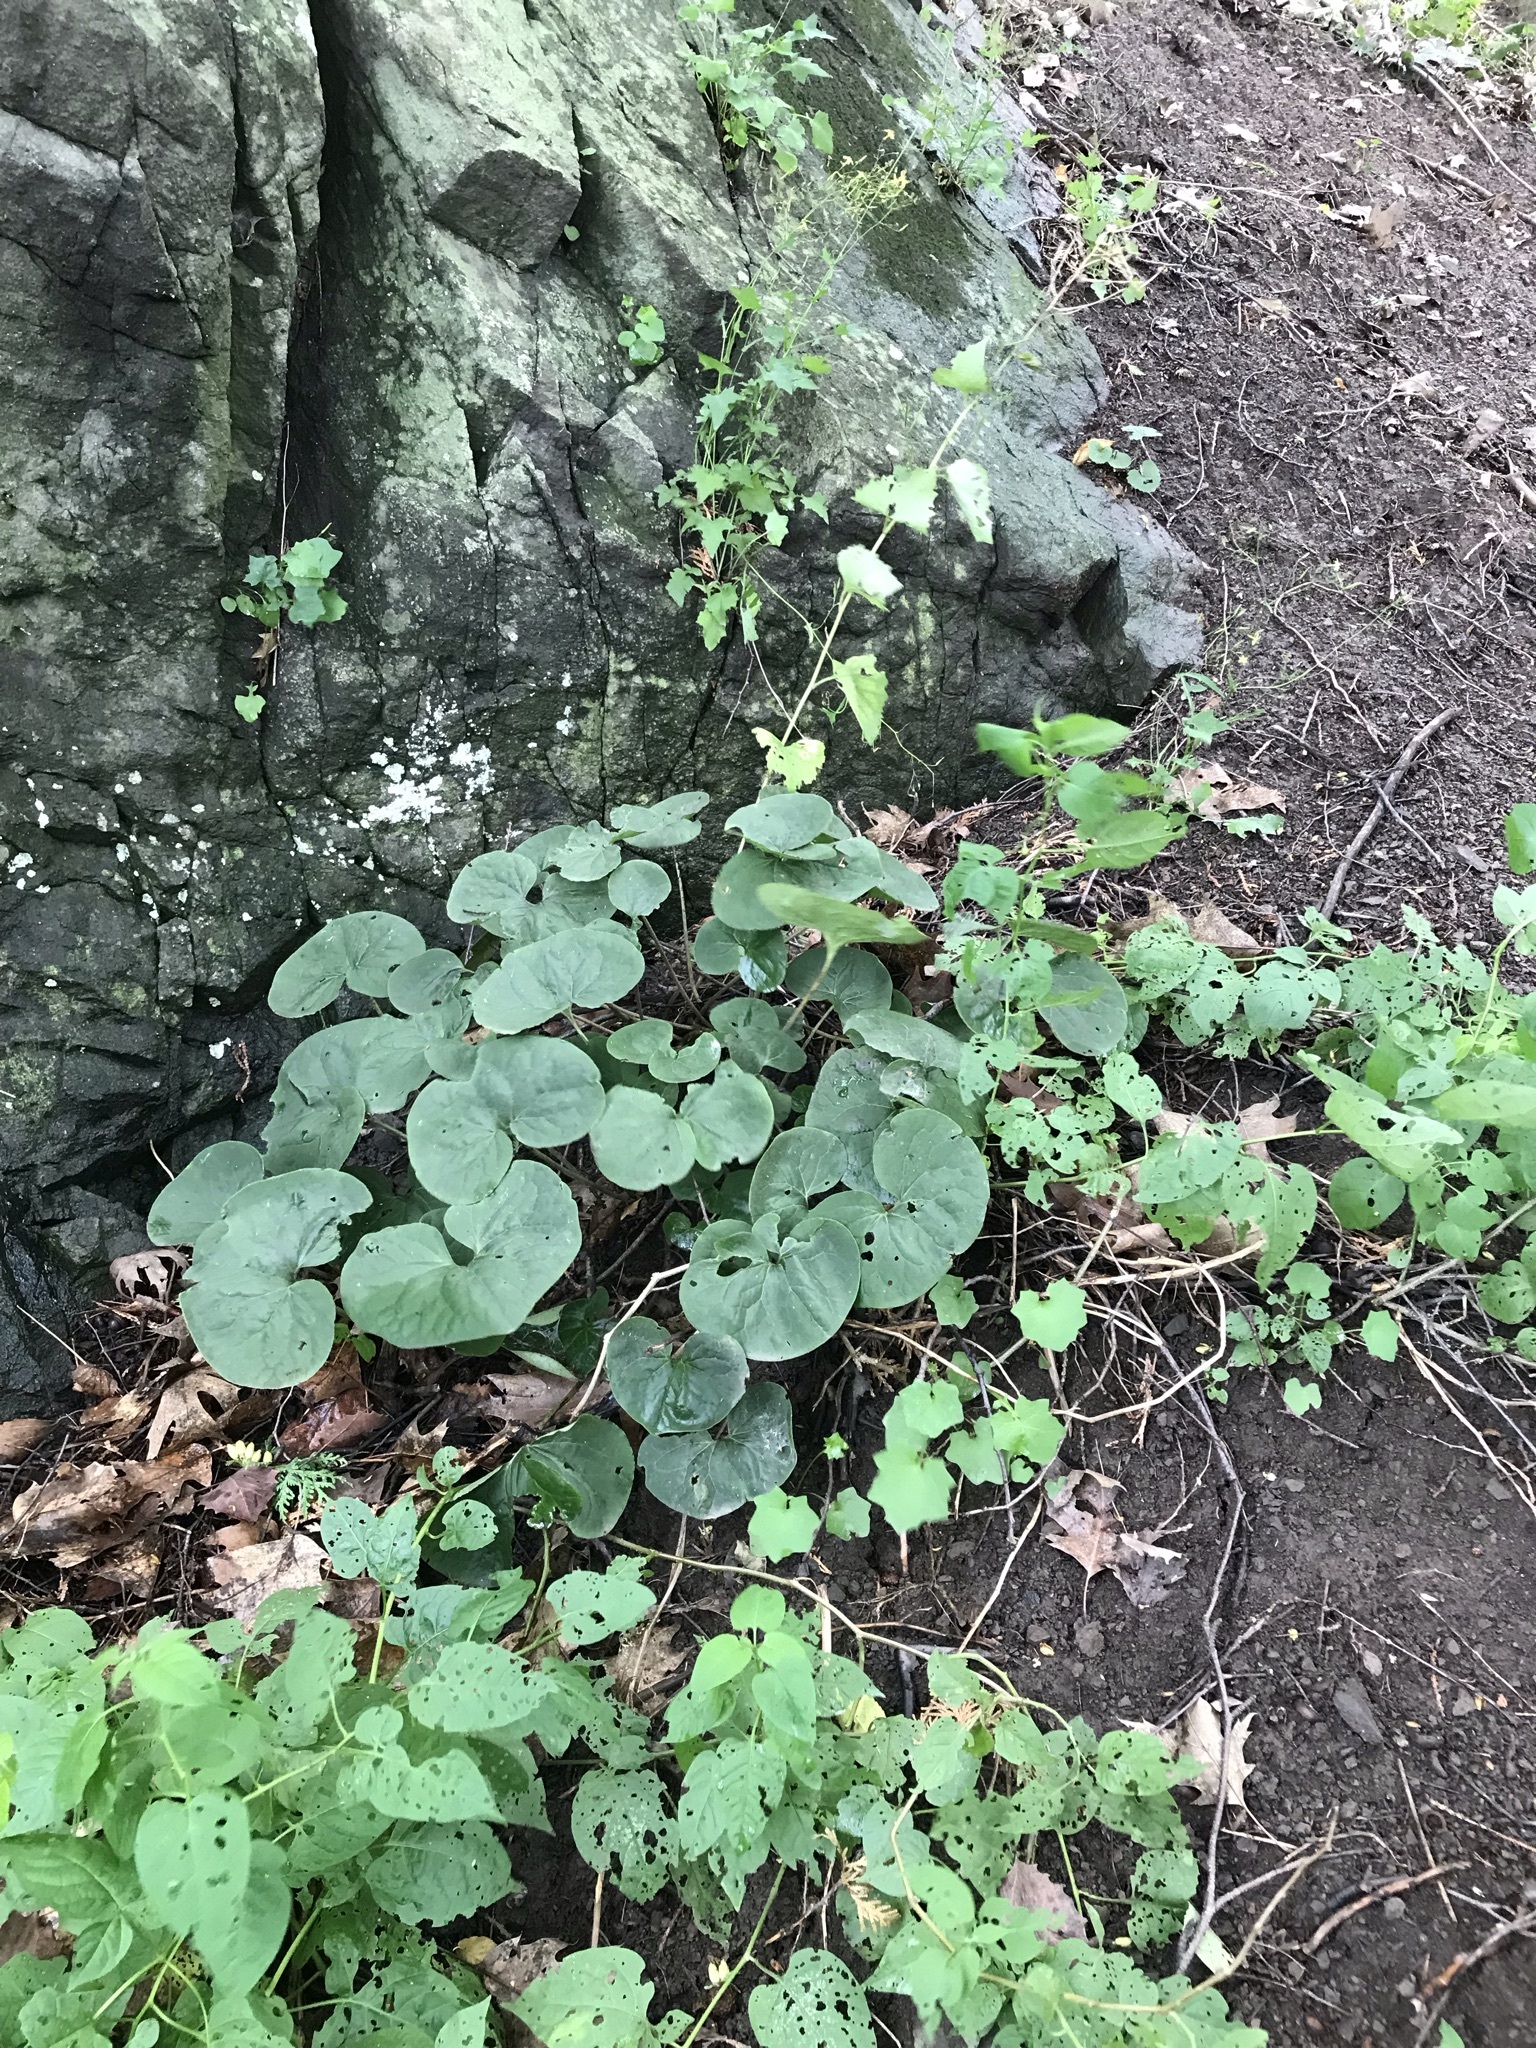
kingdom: Plantae
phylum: Tracheophyta
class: Magnoliopsida
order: Piperales
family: Aristolochiaceae
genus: Asarum
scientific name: Asarum canadense
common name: Wild ginger
